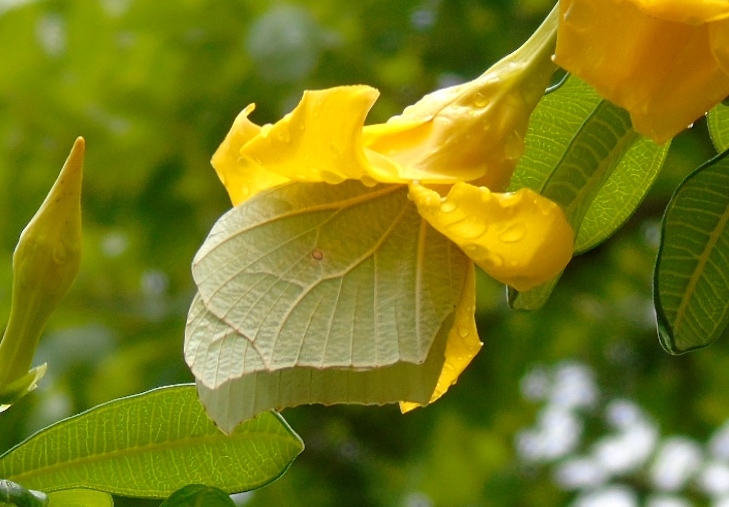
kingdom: Animalia
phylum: Arthropoda
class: Insecta
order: Lepidoptera
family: Pieridae
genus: Anteos
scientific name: Anteos clorinde
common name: White angled sulphur
